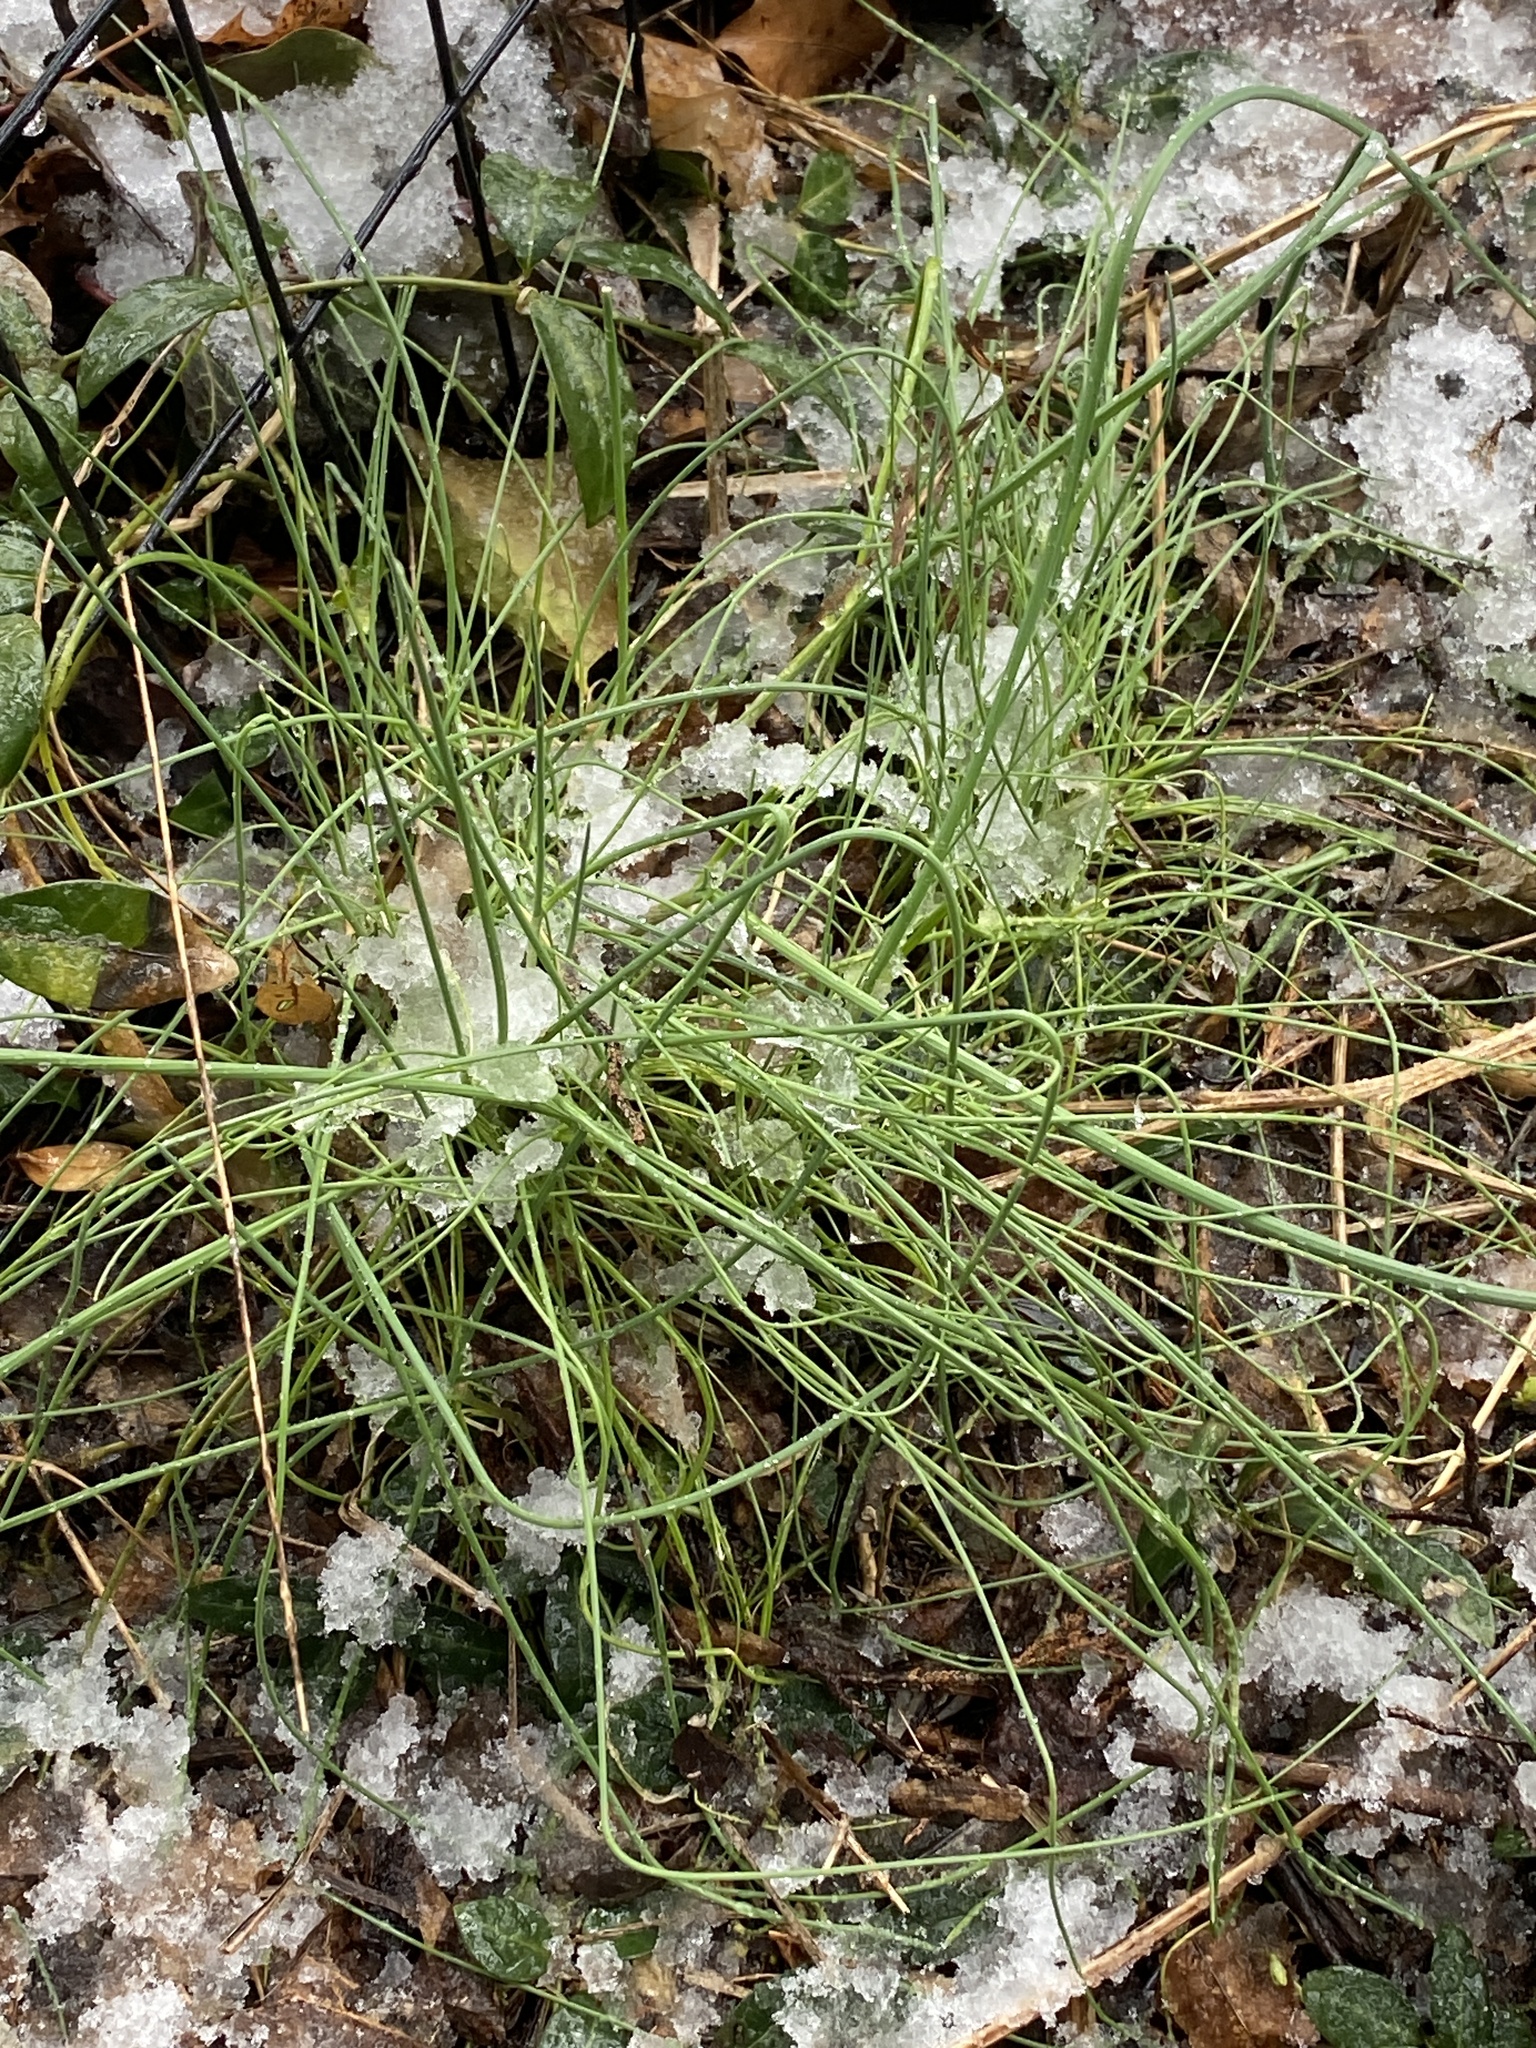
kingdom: Plantae
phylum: Tracheophyta
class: Liliopsida
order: Asparagales
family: Amaryllidaceae
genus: Allium
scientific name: Allium vineale
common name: Crow garlic
